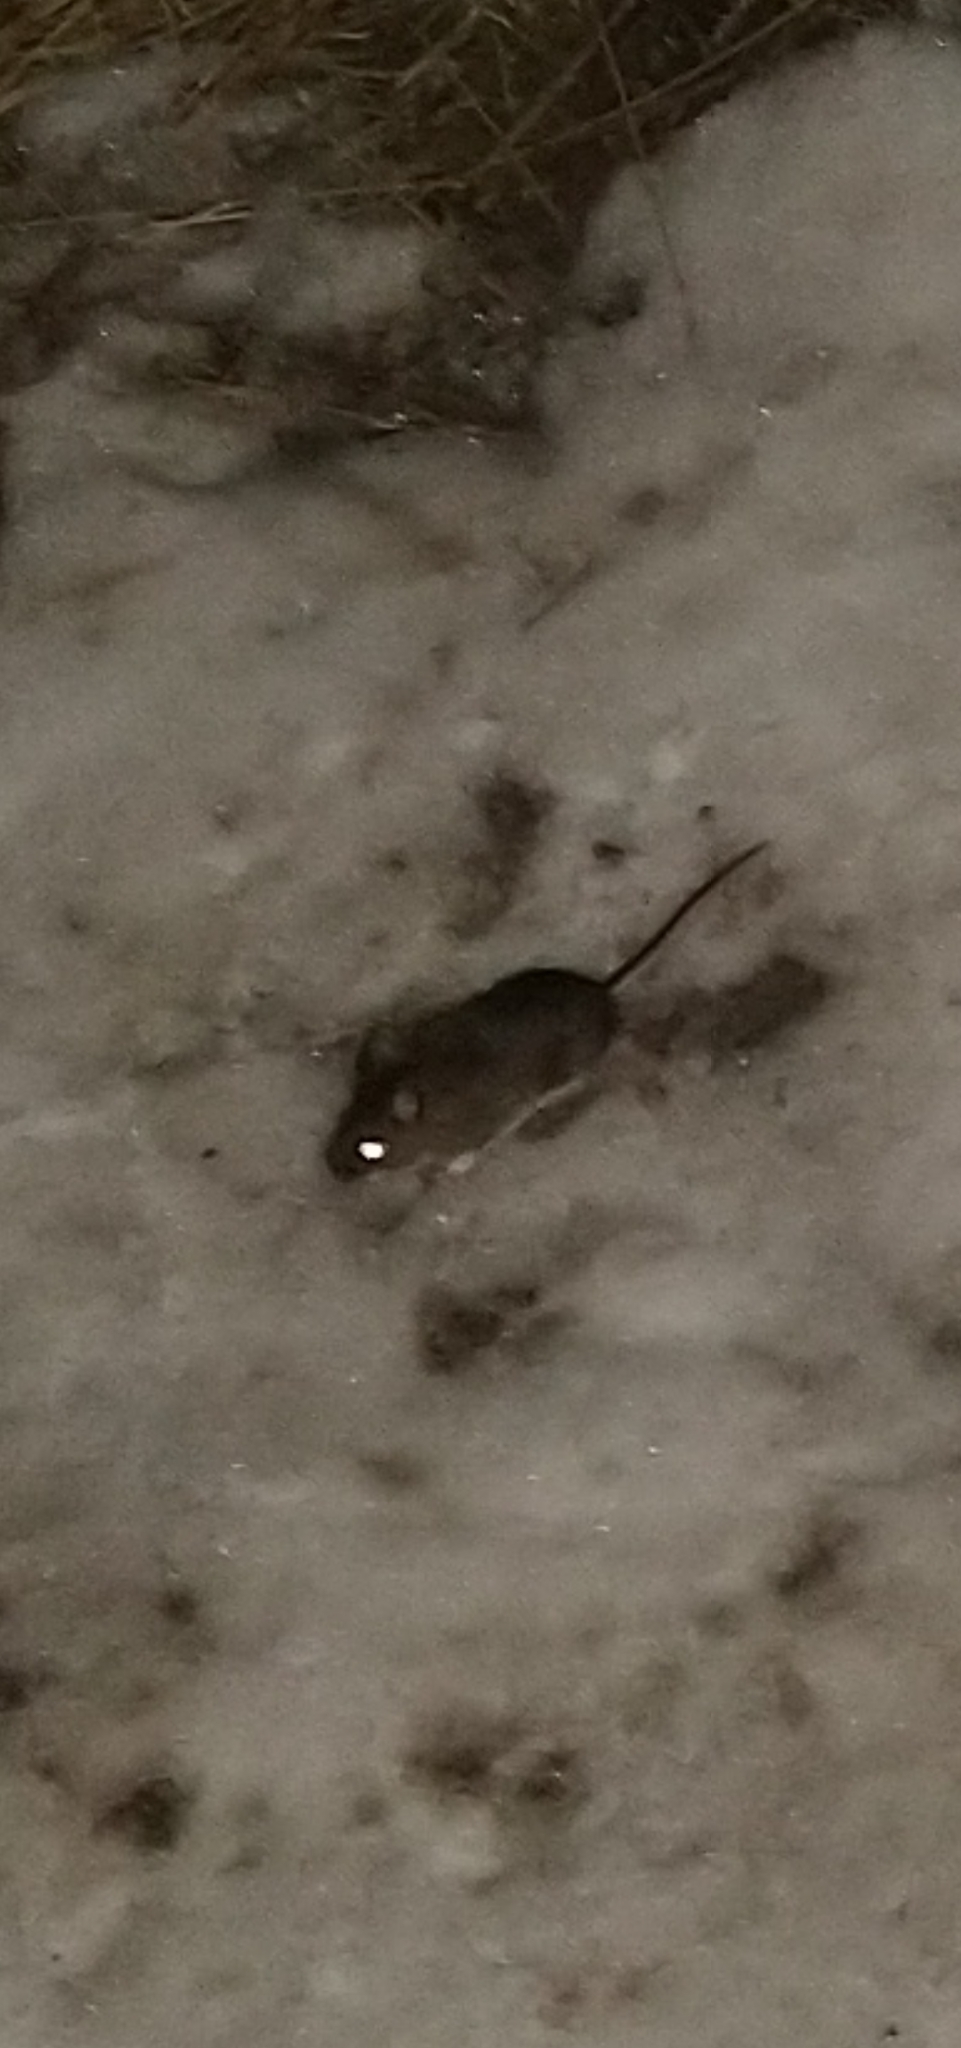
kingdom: Animalia
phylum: Chordata
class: Mammalia
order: Rodentia
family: Cricetidae
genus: Peromyscus
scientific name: Peromyscus maniculatus
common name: Deer mouse
